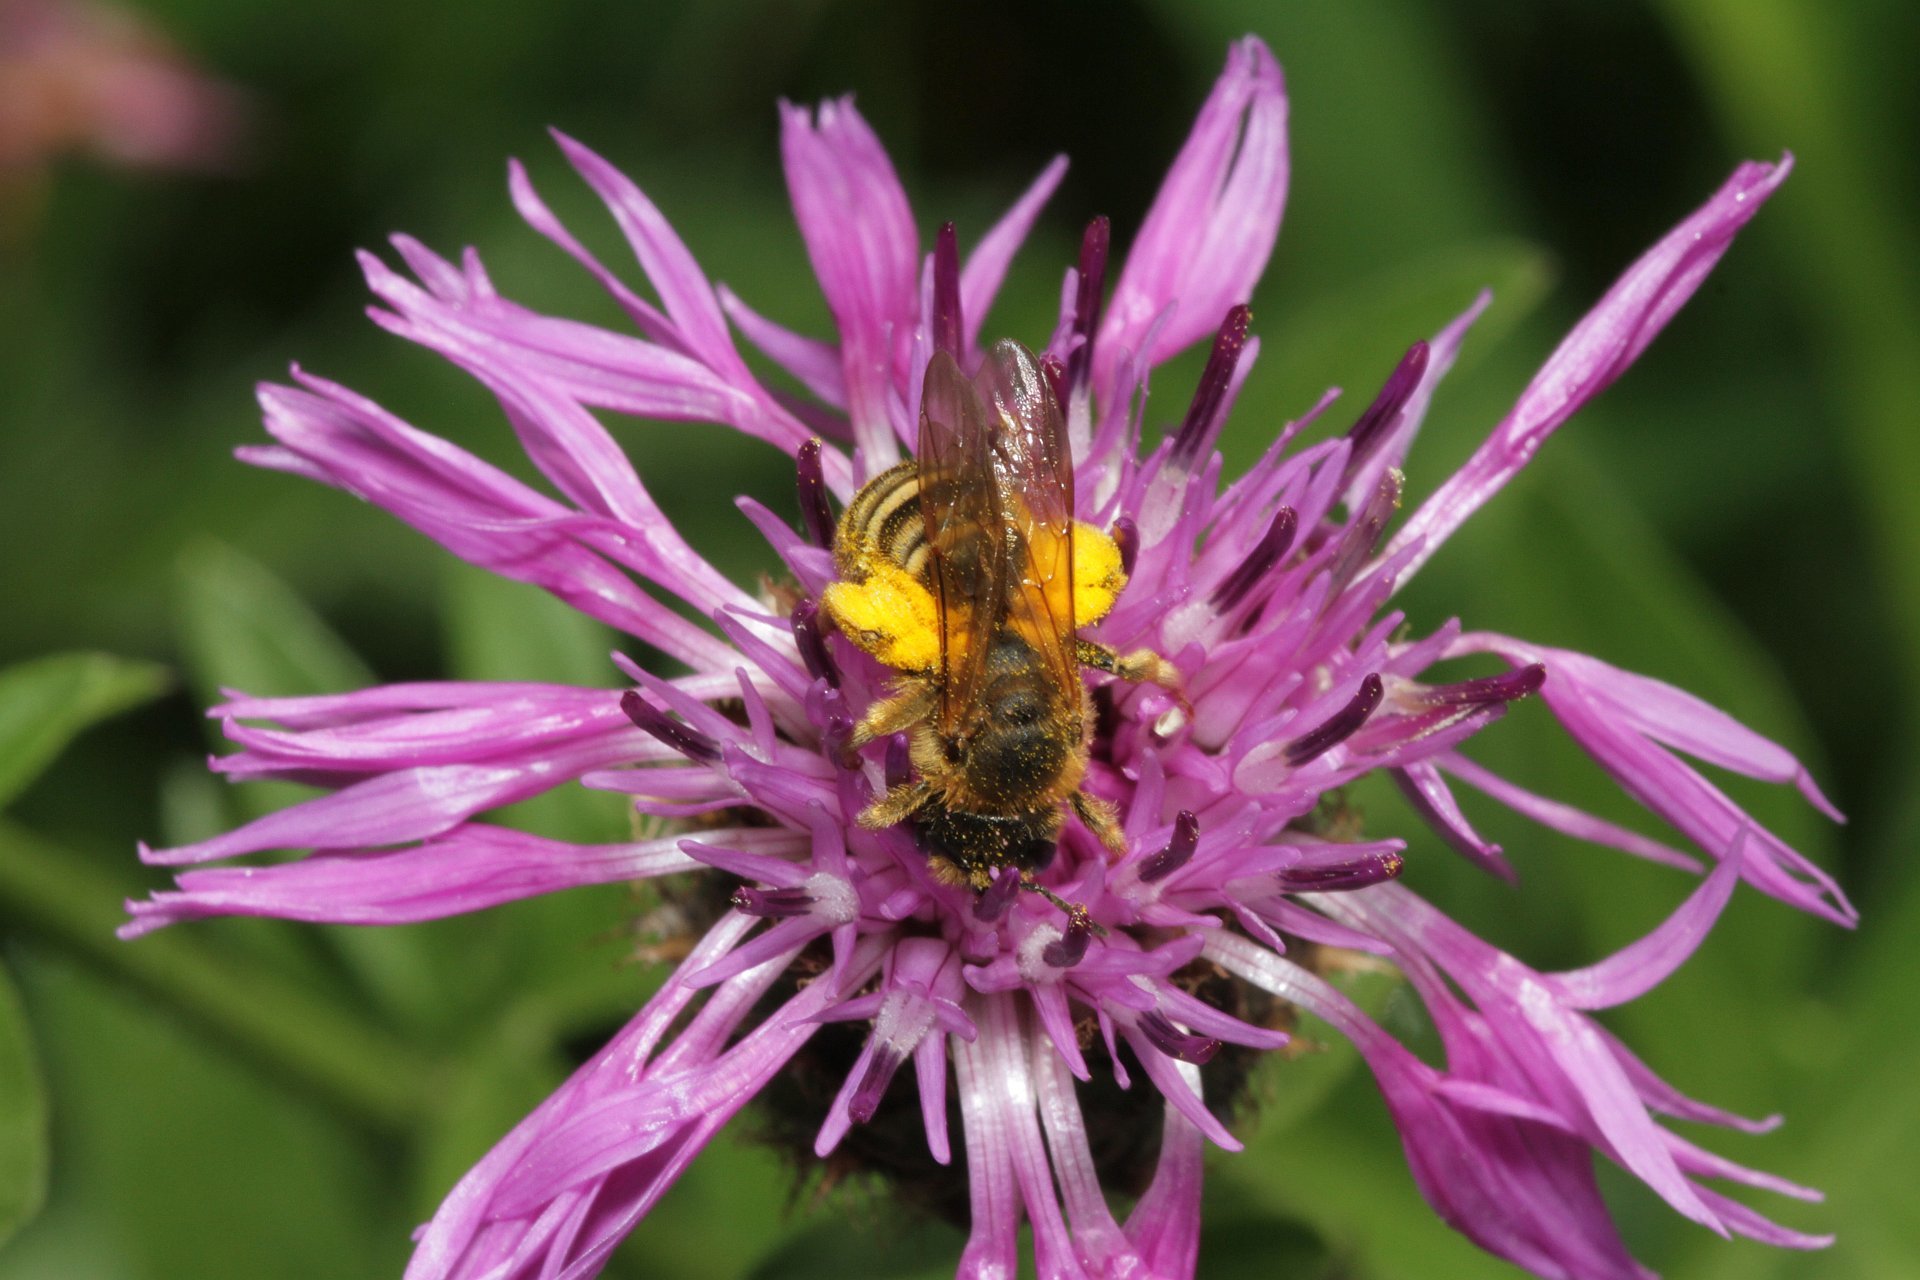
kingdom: Animalia
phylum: Arthropoda
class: Insecta
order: Hymenoptera
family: Halictidae
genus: Halictus
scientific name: Halictus scabiosae
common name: Great banded furrow bee
